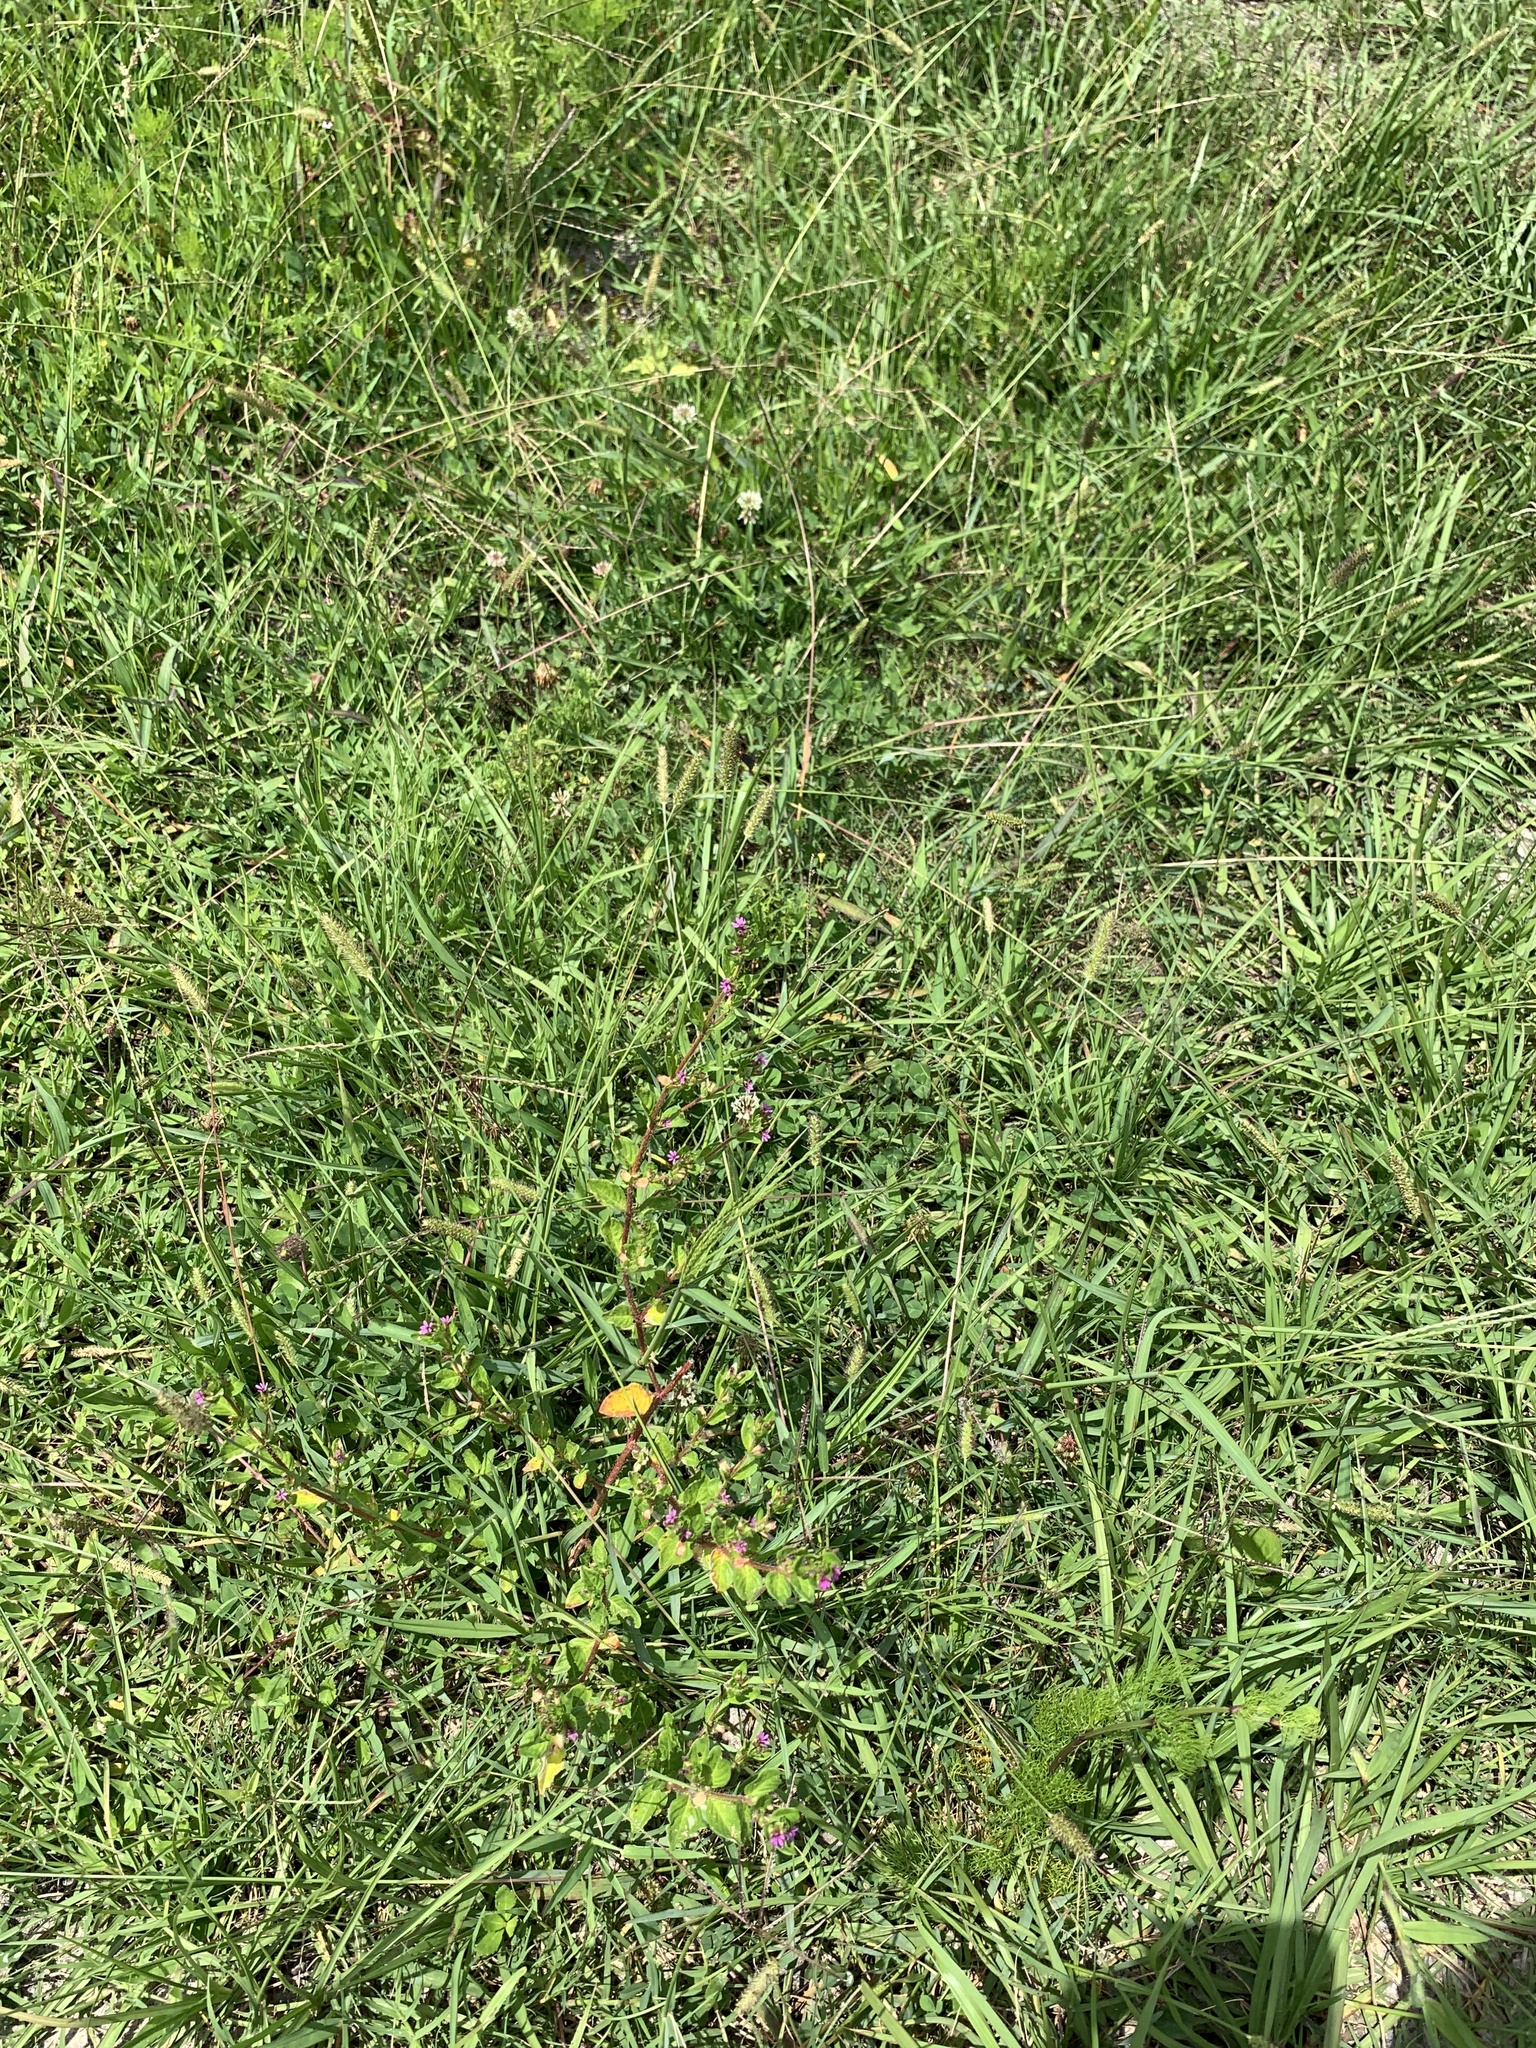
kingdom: Plantae
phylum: Tracheophyta
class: Magnoliopsida
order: Myrtales
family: Lythraceae
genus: Cuphea
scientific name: Cuphea carthagenensis
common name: Colombian waxweed
